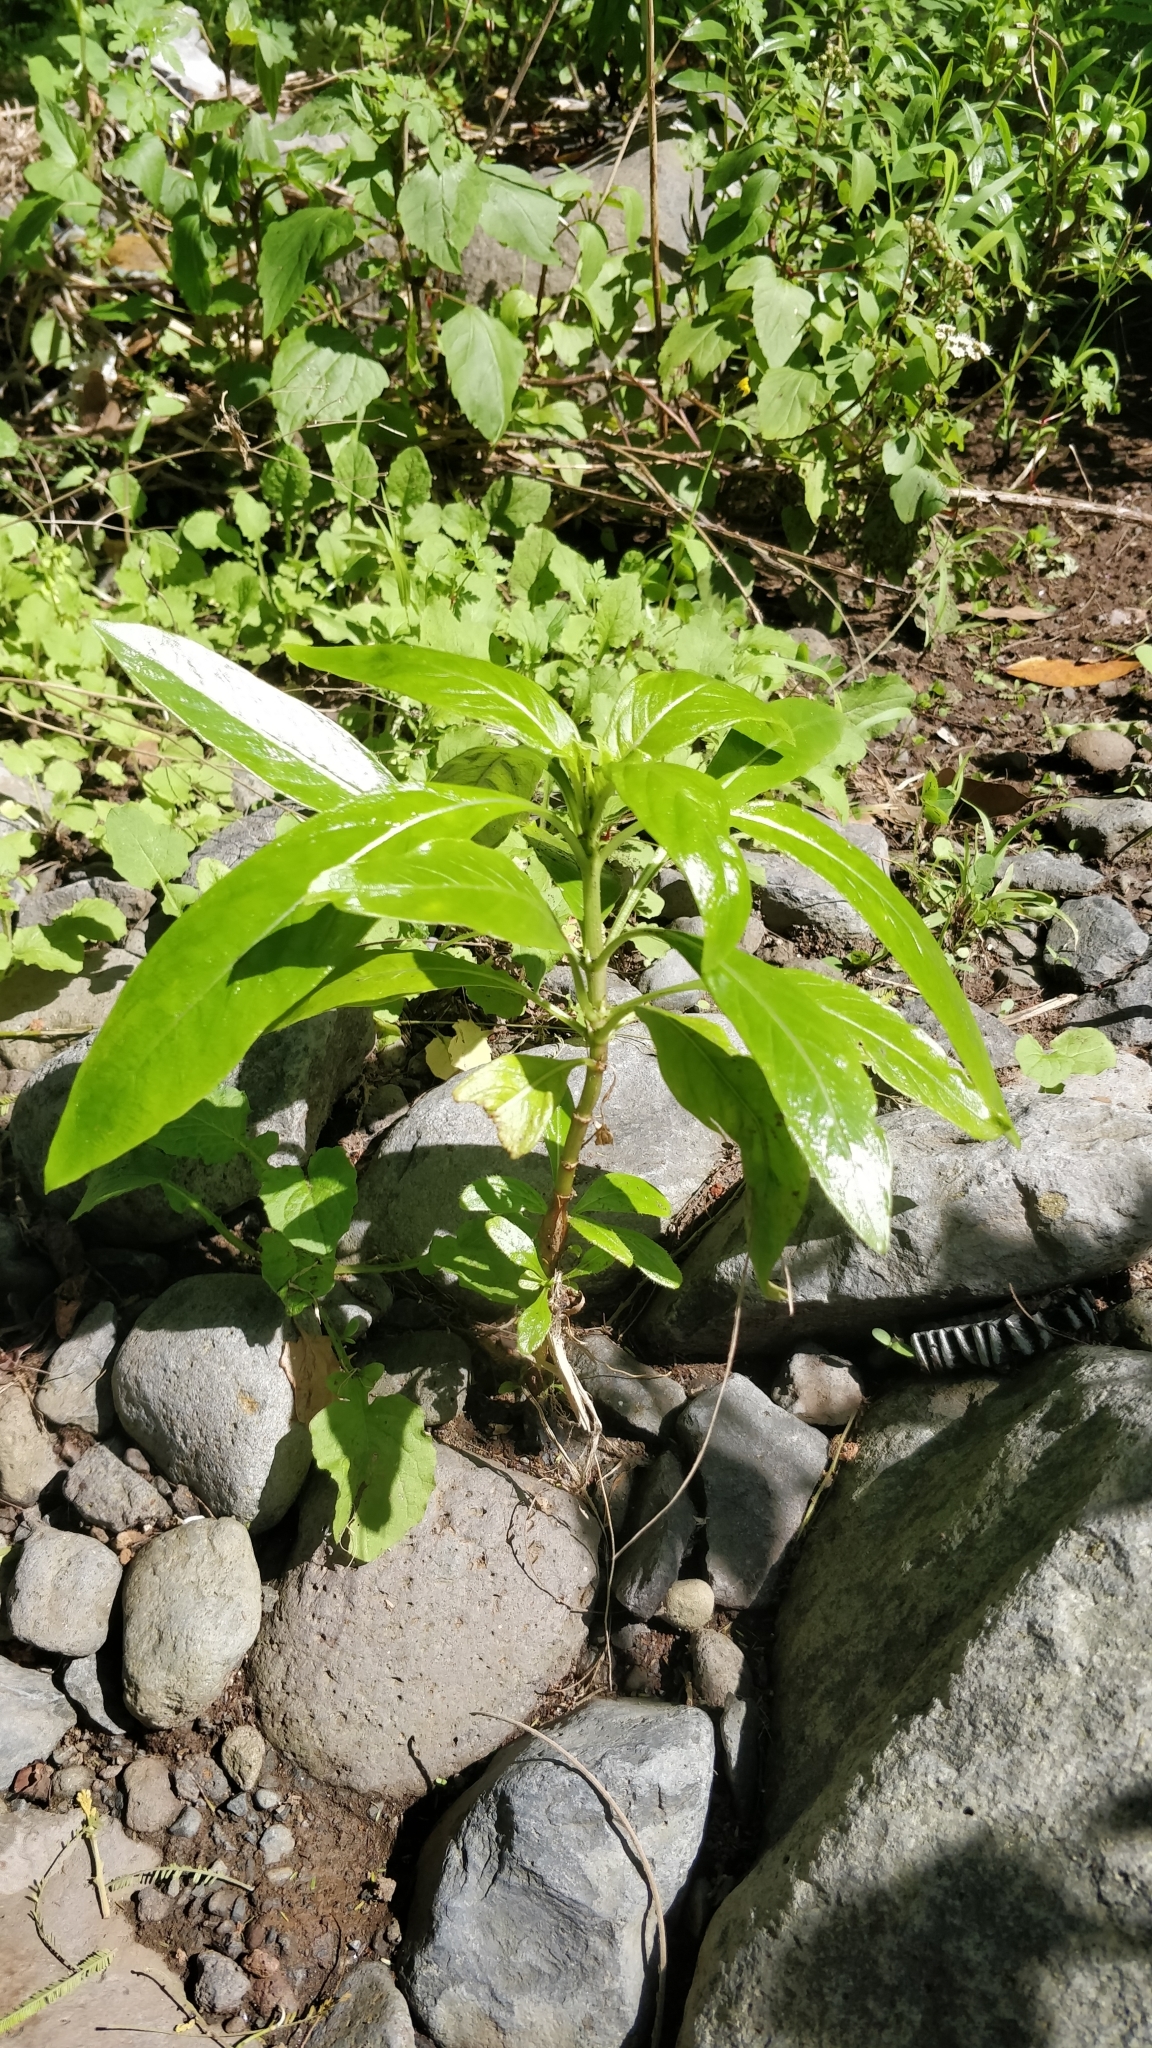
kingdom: Plantae
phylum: Tracheophyta
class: Magnoliopsida
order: Gentianales
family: Rubiaceae
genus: Phyllis
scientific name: Phyllis nobla
